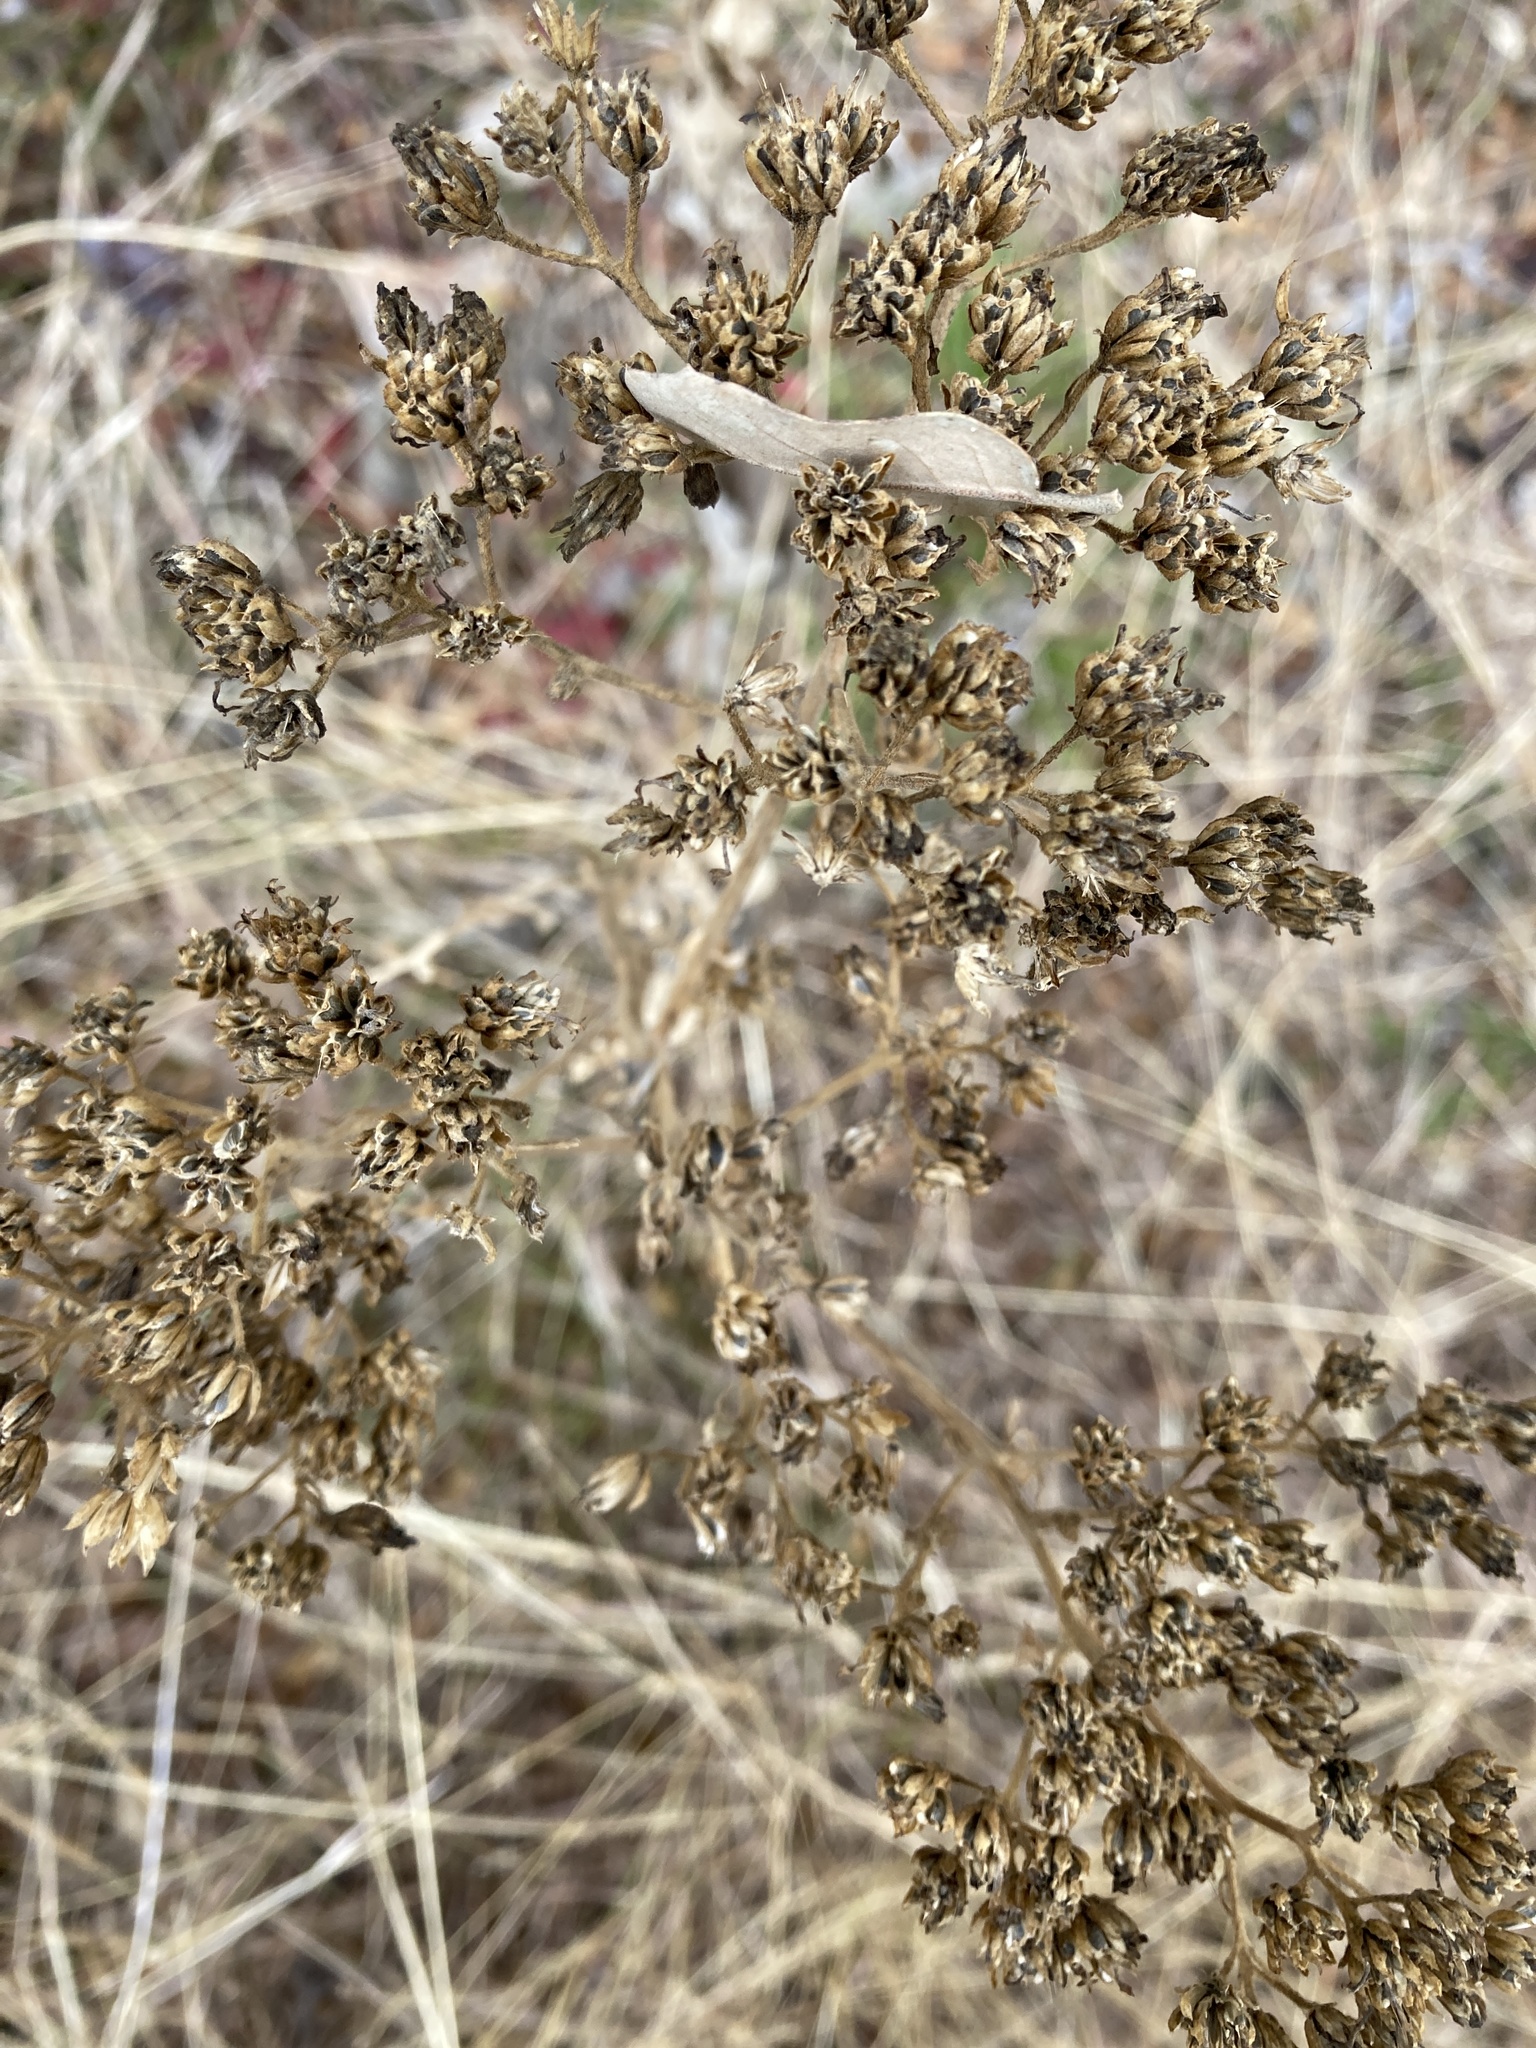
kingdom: Plantae
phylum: Tracheophyta
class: Magnoliopsida
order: Asterales
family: Asteraceae
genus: Verbesina
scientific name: Verbesina virginica
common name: Frostweed
